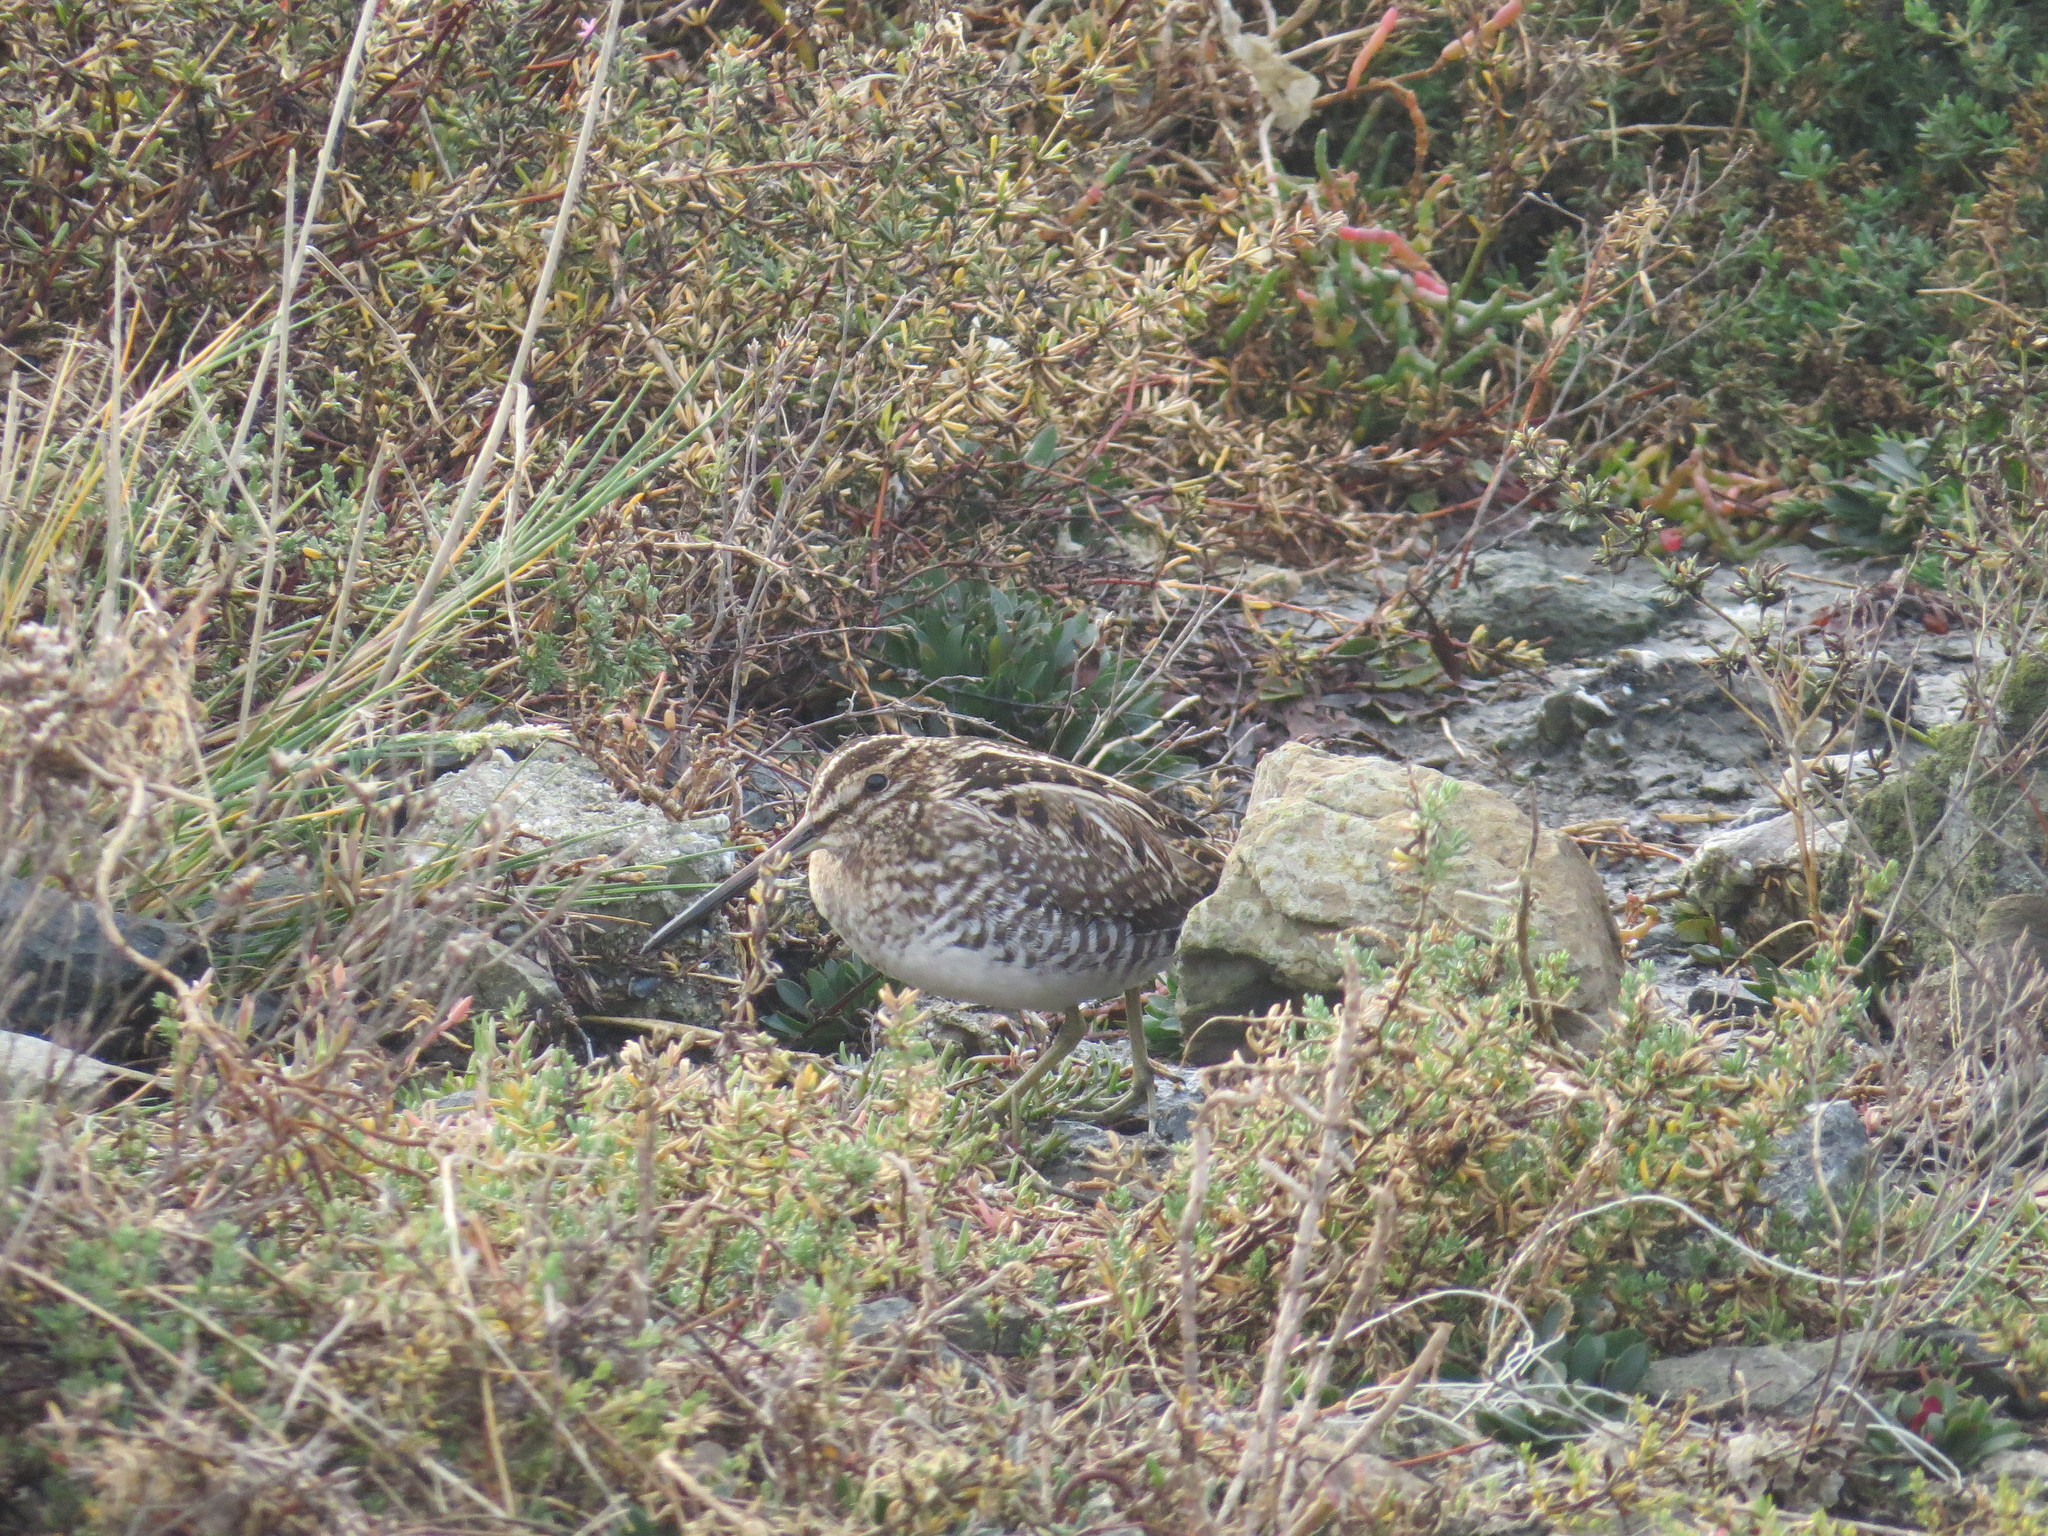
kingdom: Animalia
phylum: Chordata
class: Aves
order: Charadriiformes
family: Scolopacidae
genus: Gallinago
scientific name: Gallinago delicata
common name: Wilson's snipe
